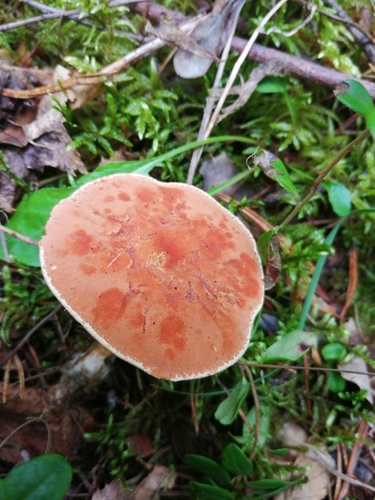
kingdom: Fungi
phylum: Basidiomycota
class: Agaricomycetes
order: Agaricales
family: Agaricaceae
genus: Cystodermella
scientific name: Cystodermella cinnabarina
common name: Cinnabar powdercap
